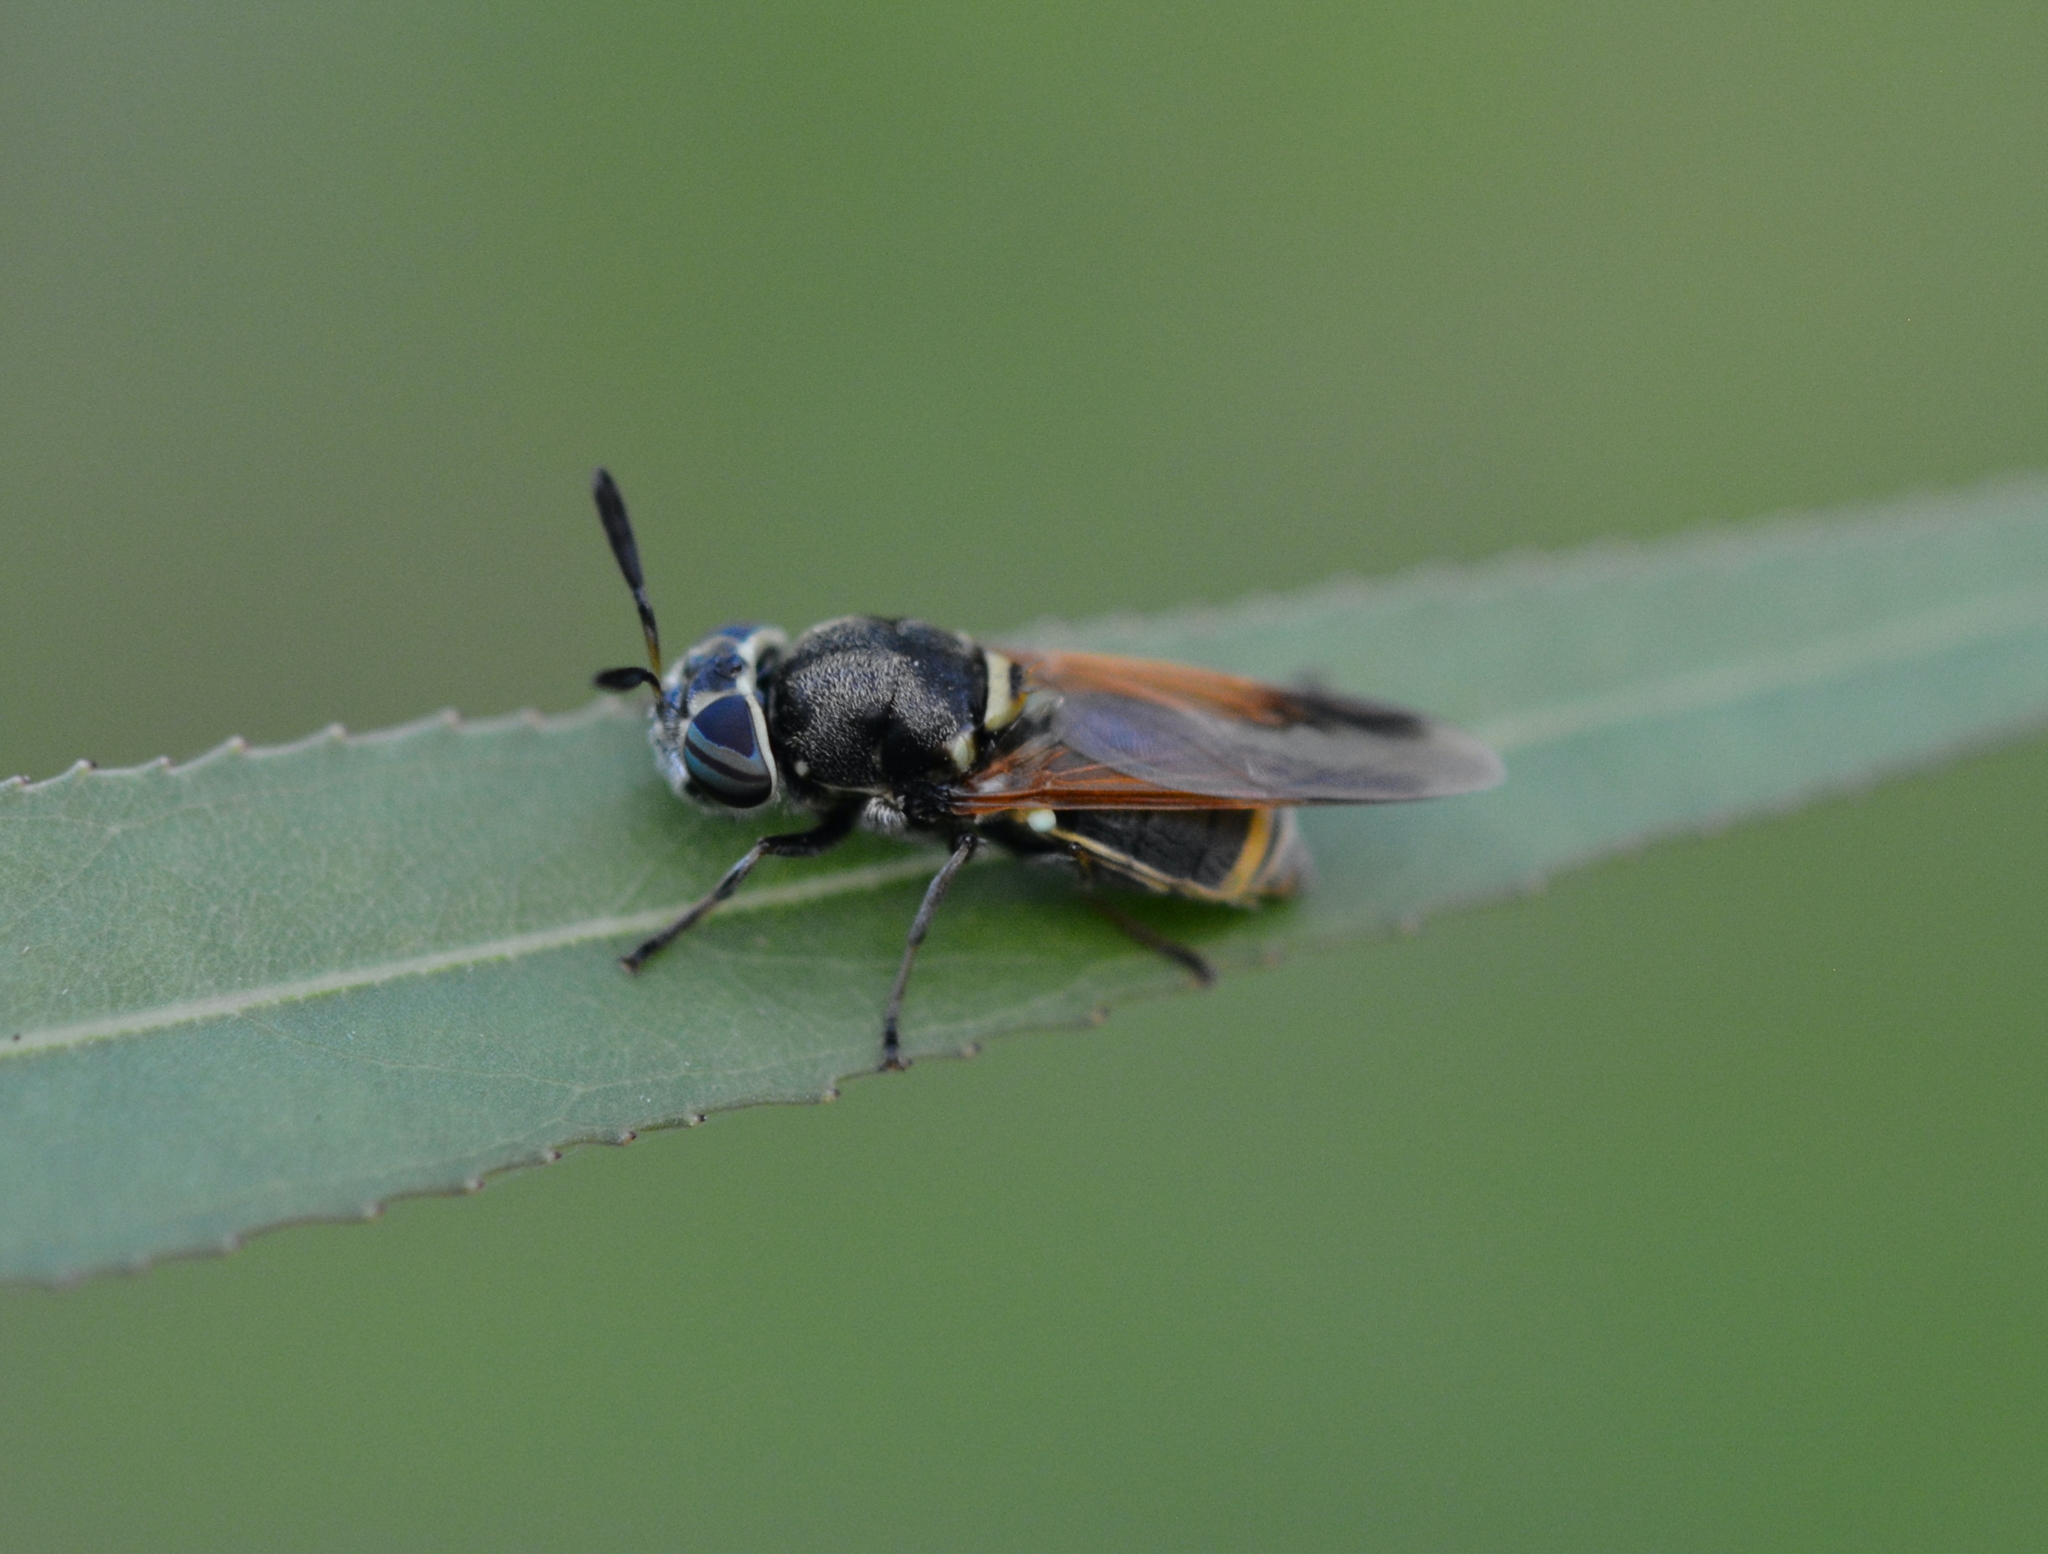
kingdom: Animalia
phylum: Arthropoda
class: Insecta
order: Diptera
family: Stratiomyidae
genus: Hoplitimyia
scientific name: Hoplitimyia mutabilis
